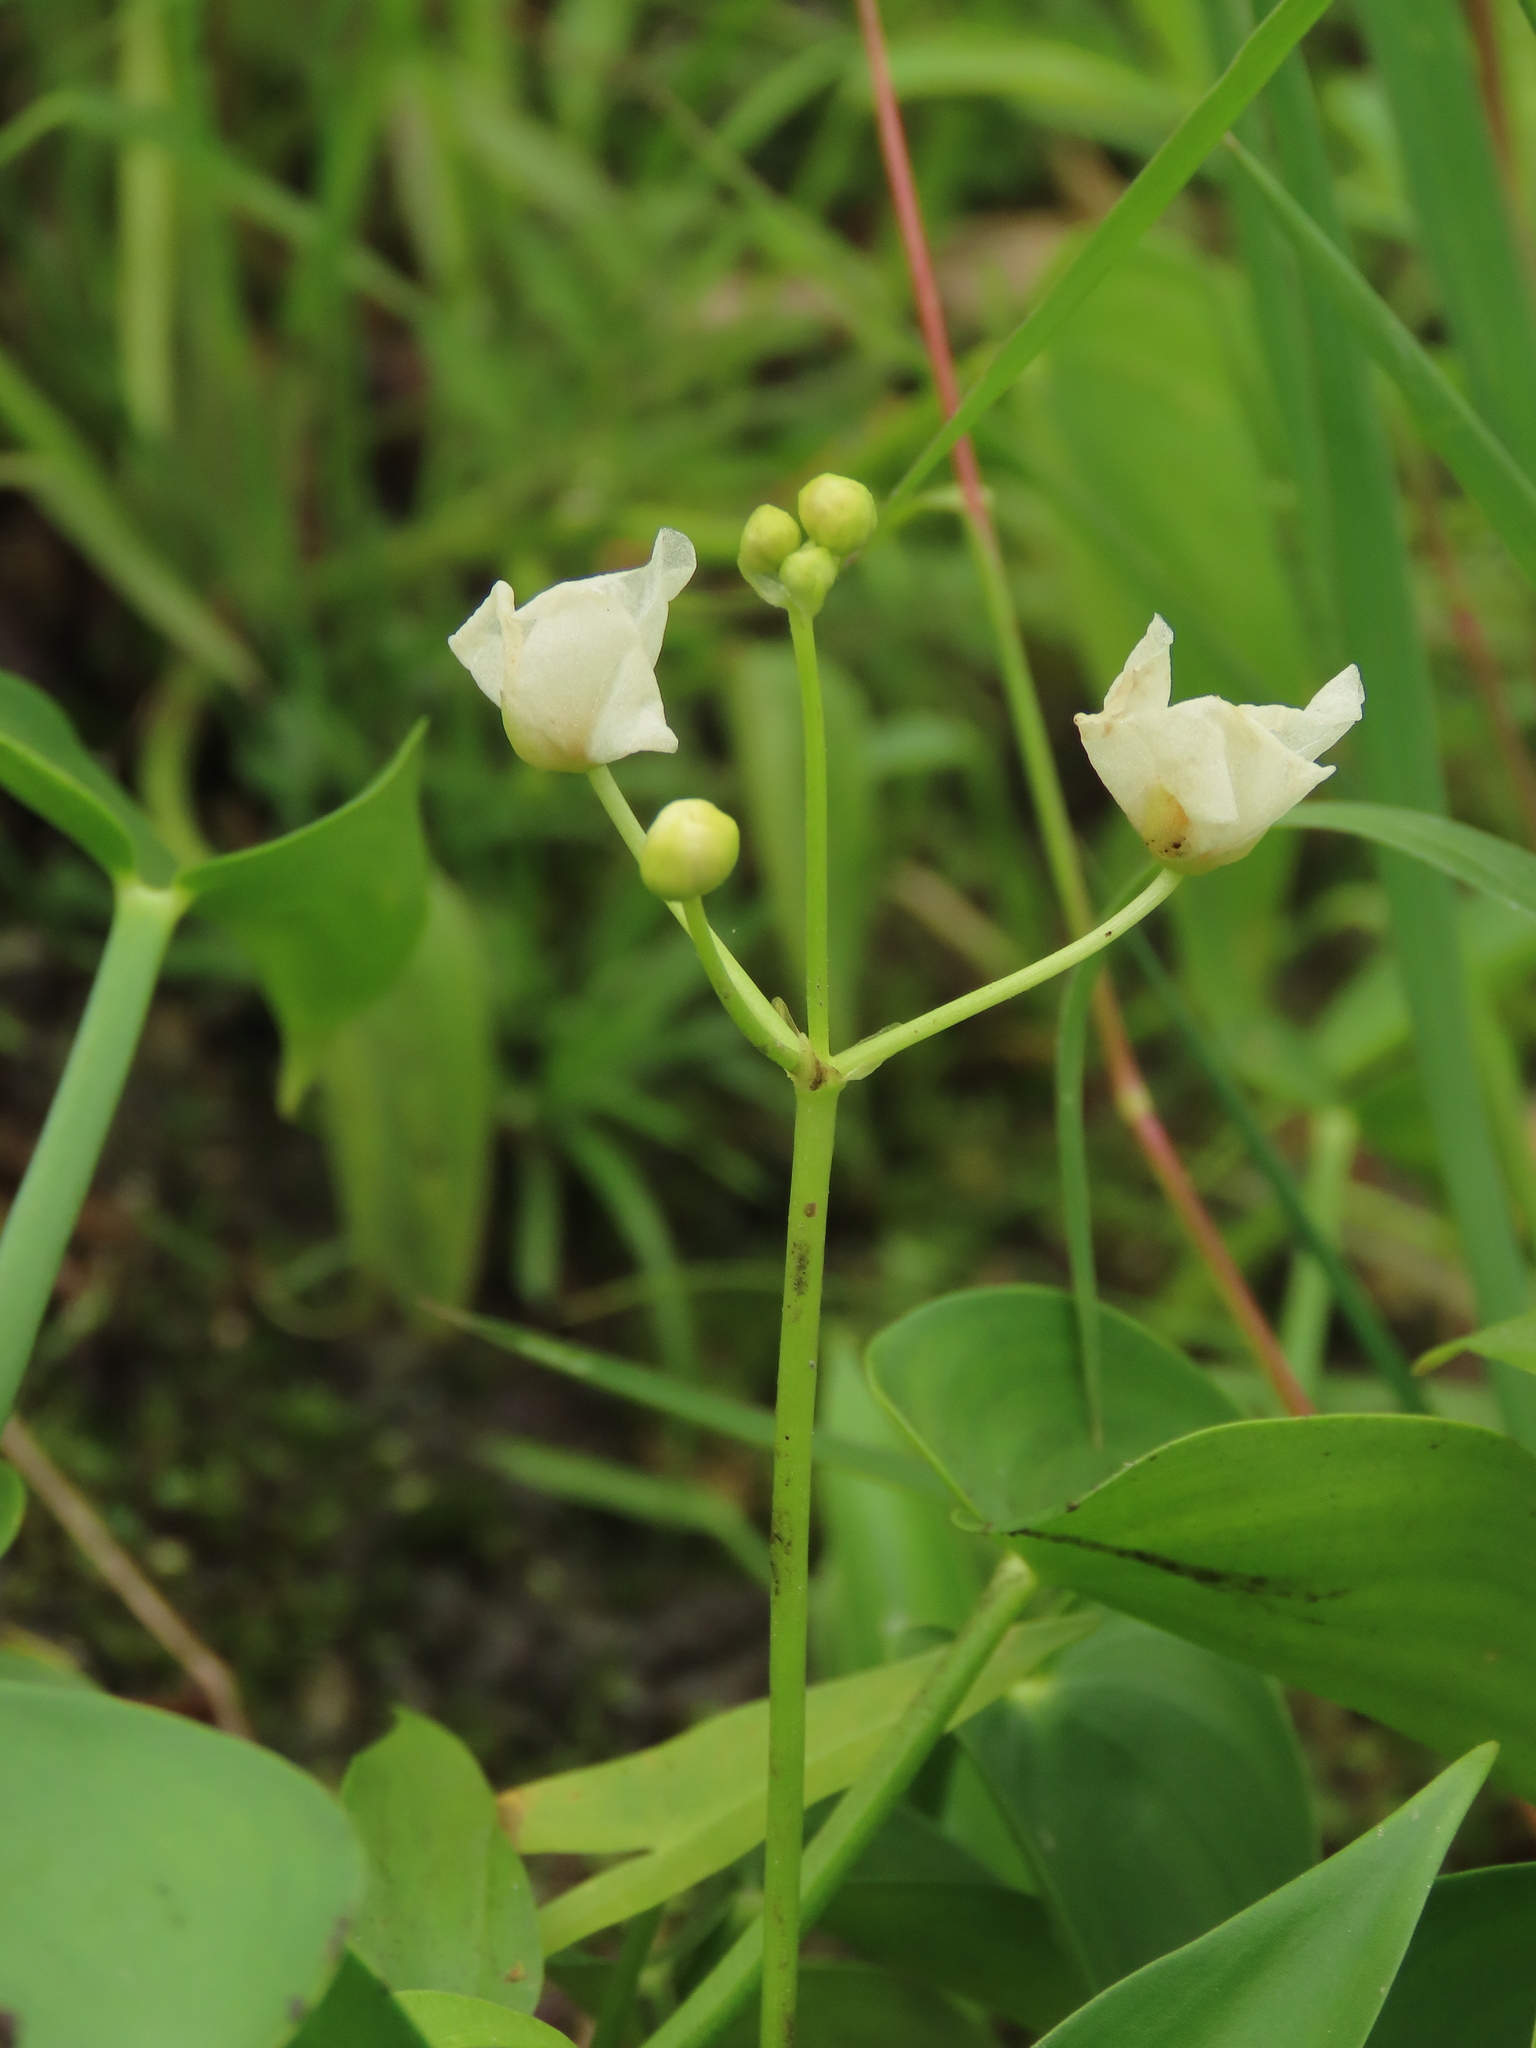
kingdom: Plantae
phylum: Tracheophyta
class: Liliopsida
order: Alismatales
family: Alismataceae
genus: Sagittaria
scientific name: Sagittaria trifolia
